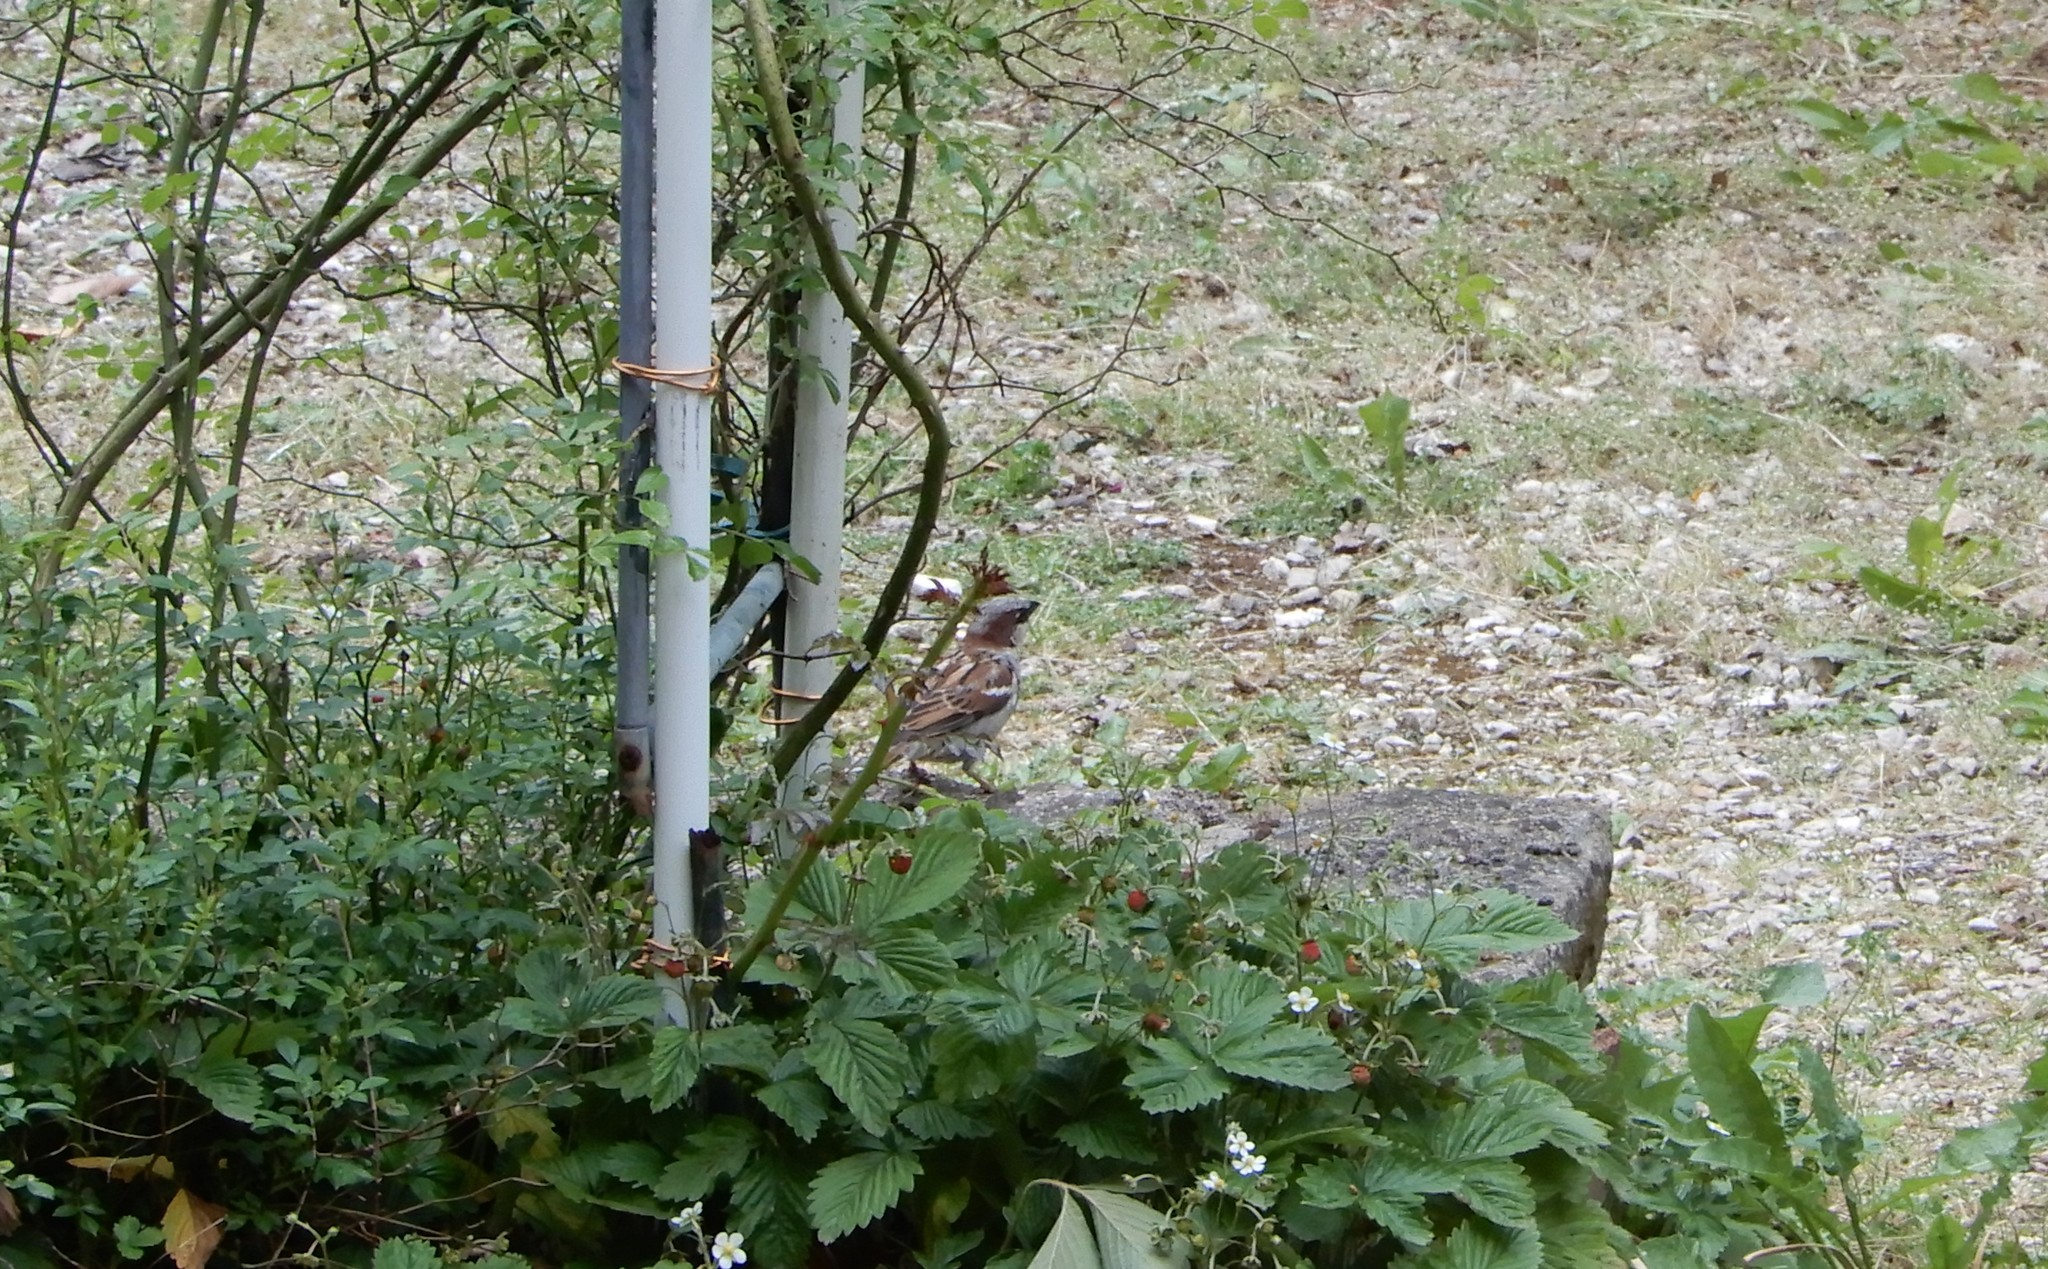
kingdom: Animalia
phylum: Chordata
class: Aves
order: Passeriformes
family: Passeridae
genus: Passer
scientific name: Passer domesticus
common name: House sparrow
